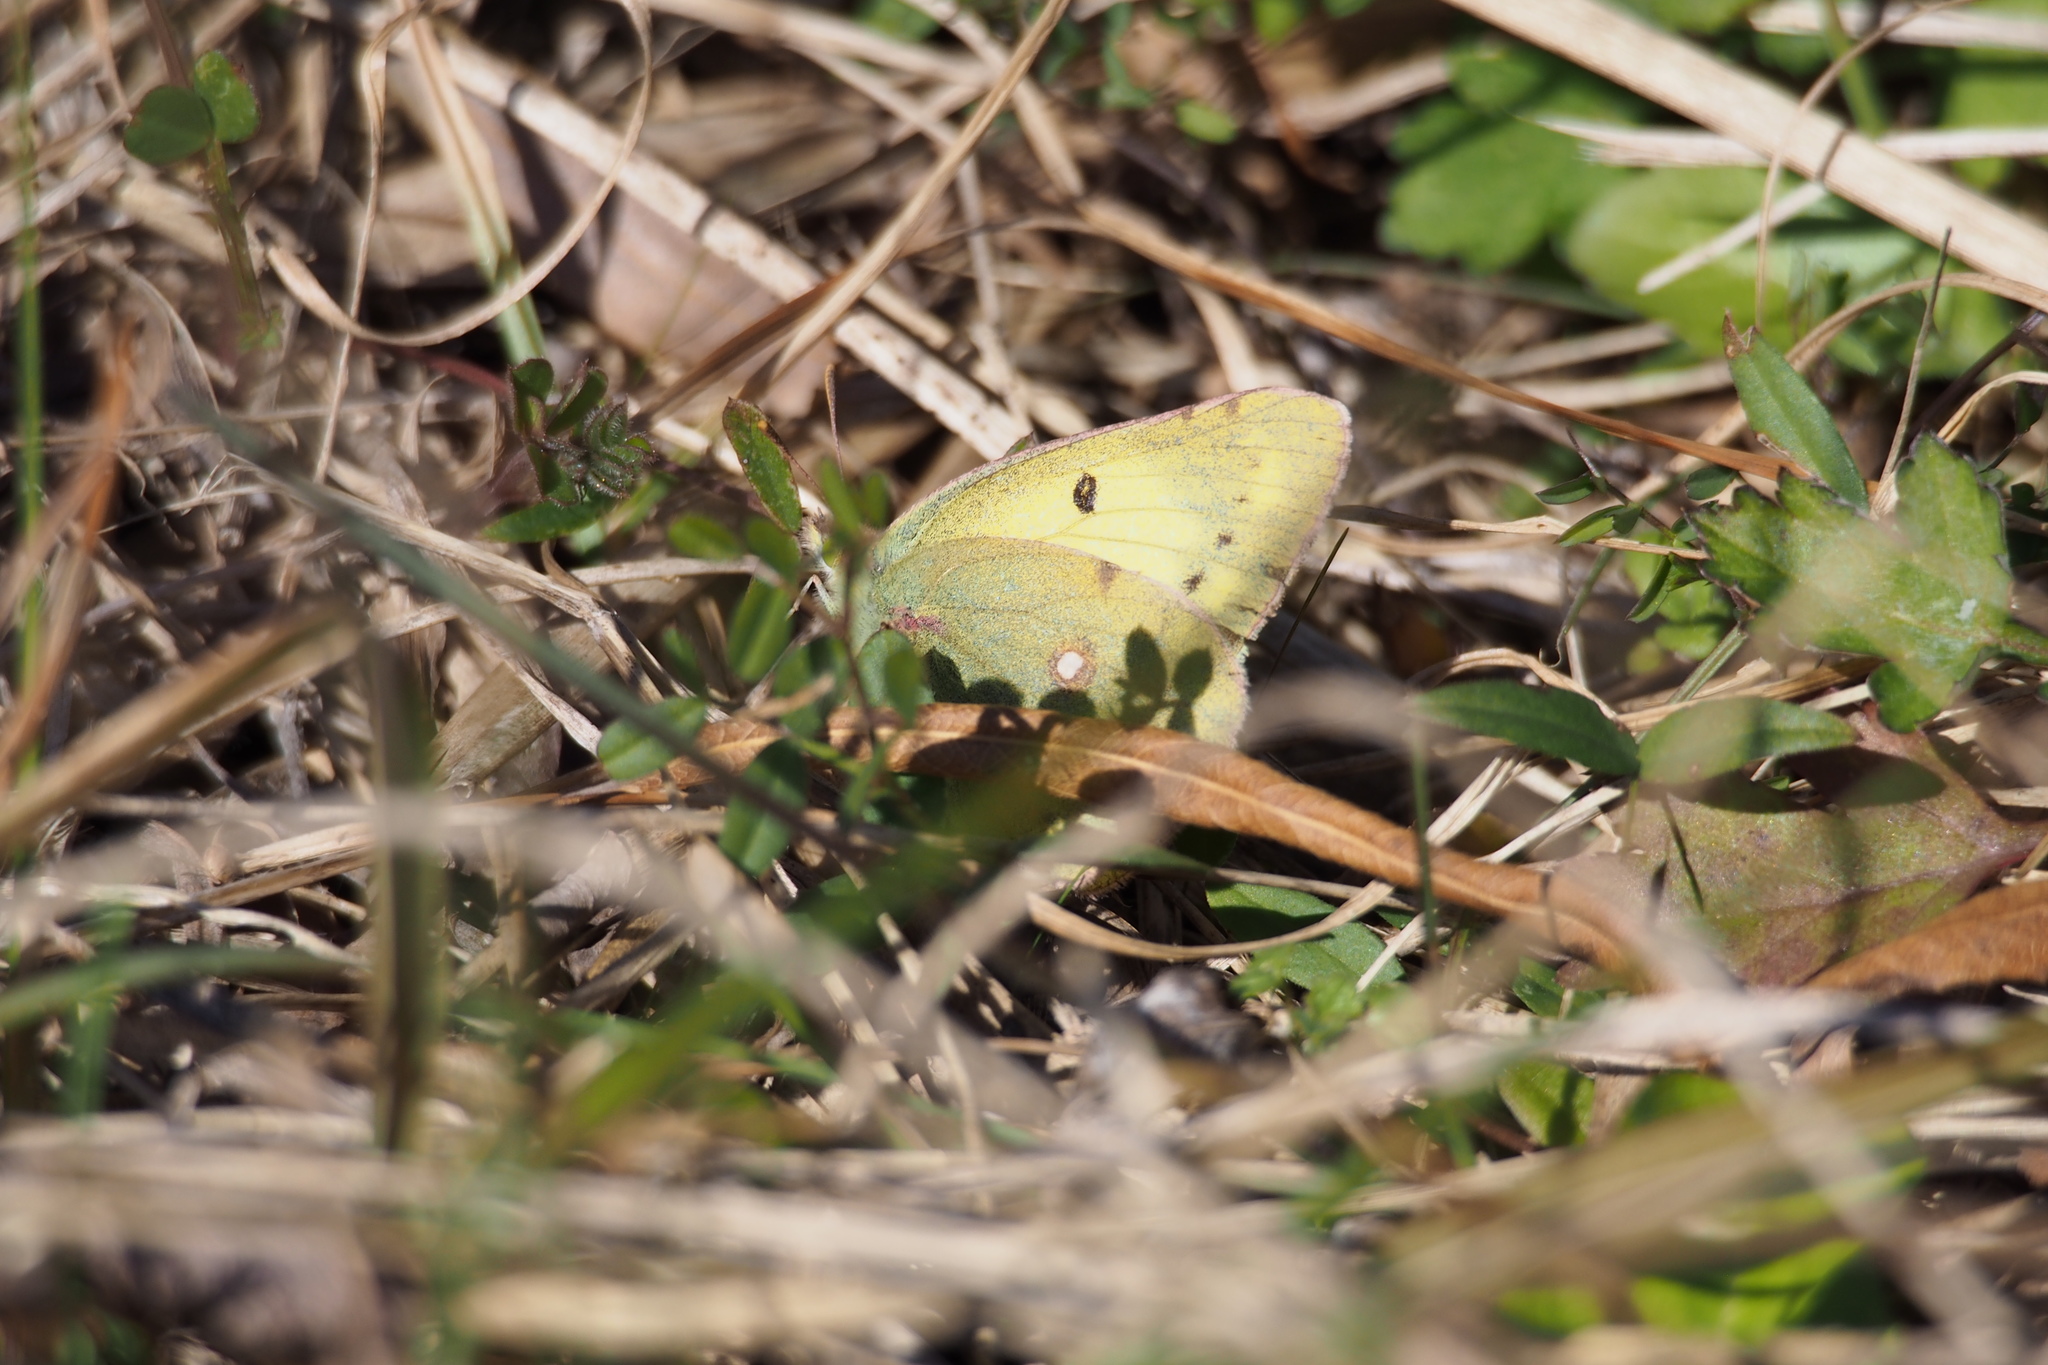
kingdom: Animalia
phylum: Arthropoda
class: Insecta
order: Lepidoptera
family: Pieridae
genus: Colias
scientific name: Colias poliographus
